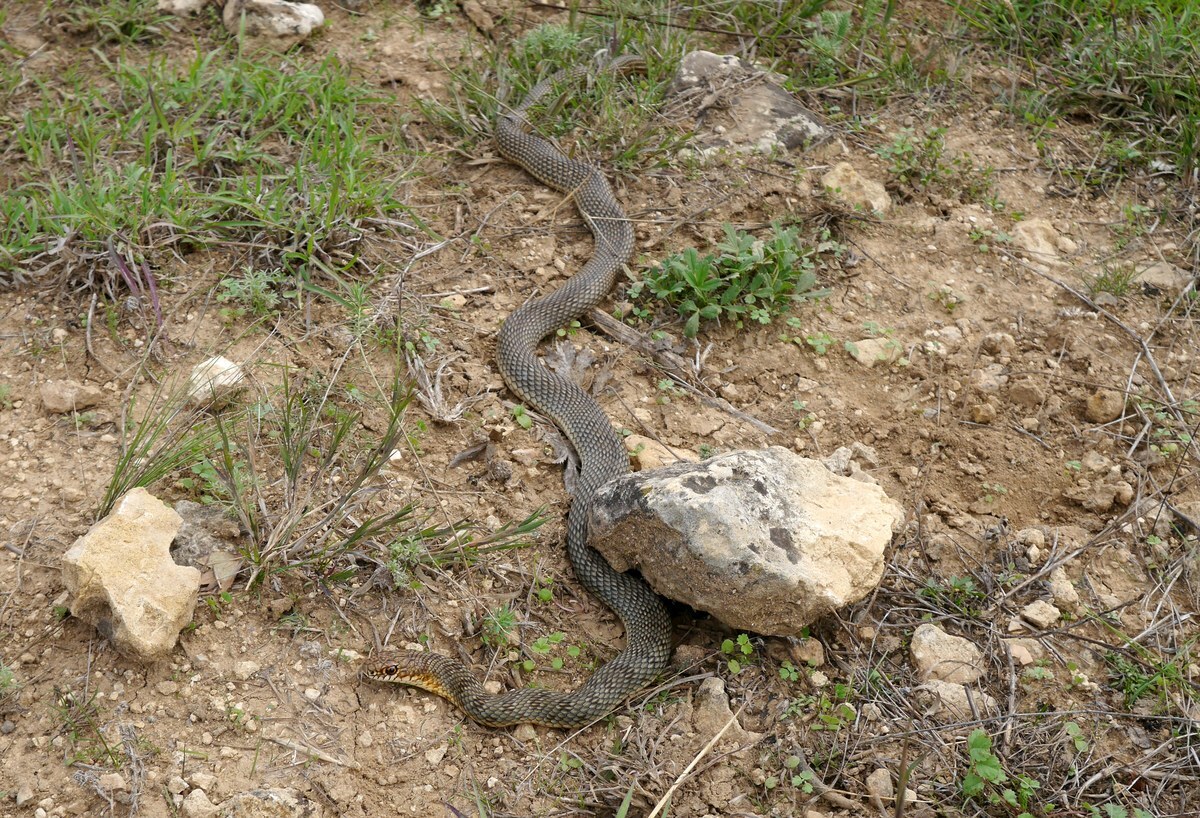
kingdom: Animalia
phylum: Chordata
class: Squamata
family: Colubridae
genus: Dolichophis
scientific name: Dolichophis caspius
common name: Large whip snake
